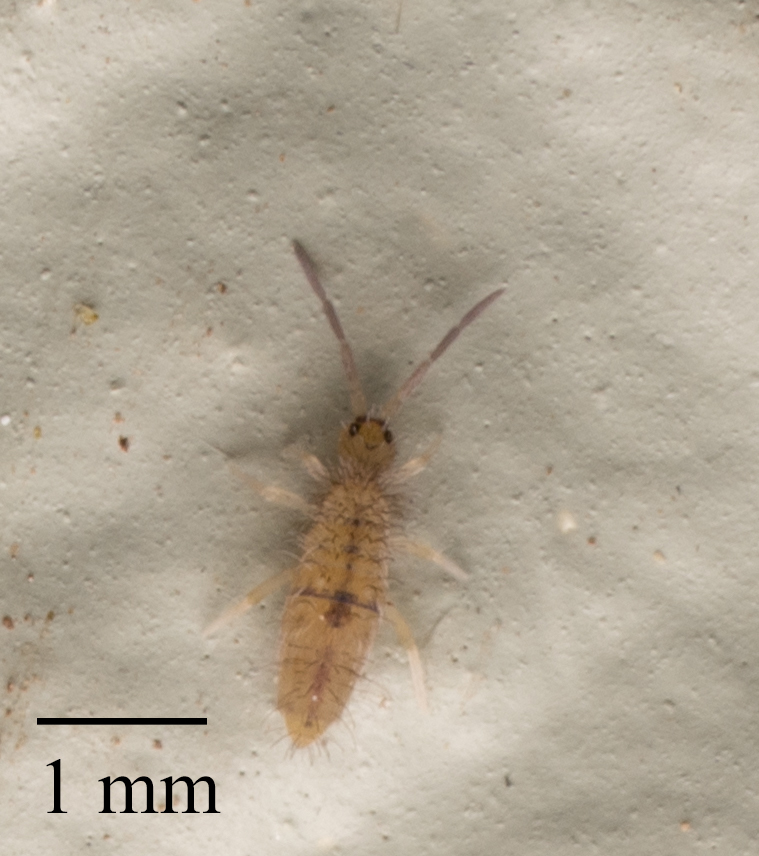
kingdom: Animalia
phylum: Arthropoda
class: Collembola
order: Entomobryomorpha
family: Entomobryidae
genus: Entomobrya
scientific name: Entomobrya unostrigata
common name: Springtail
